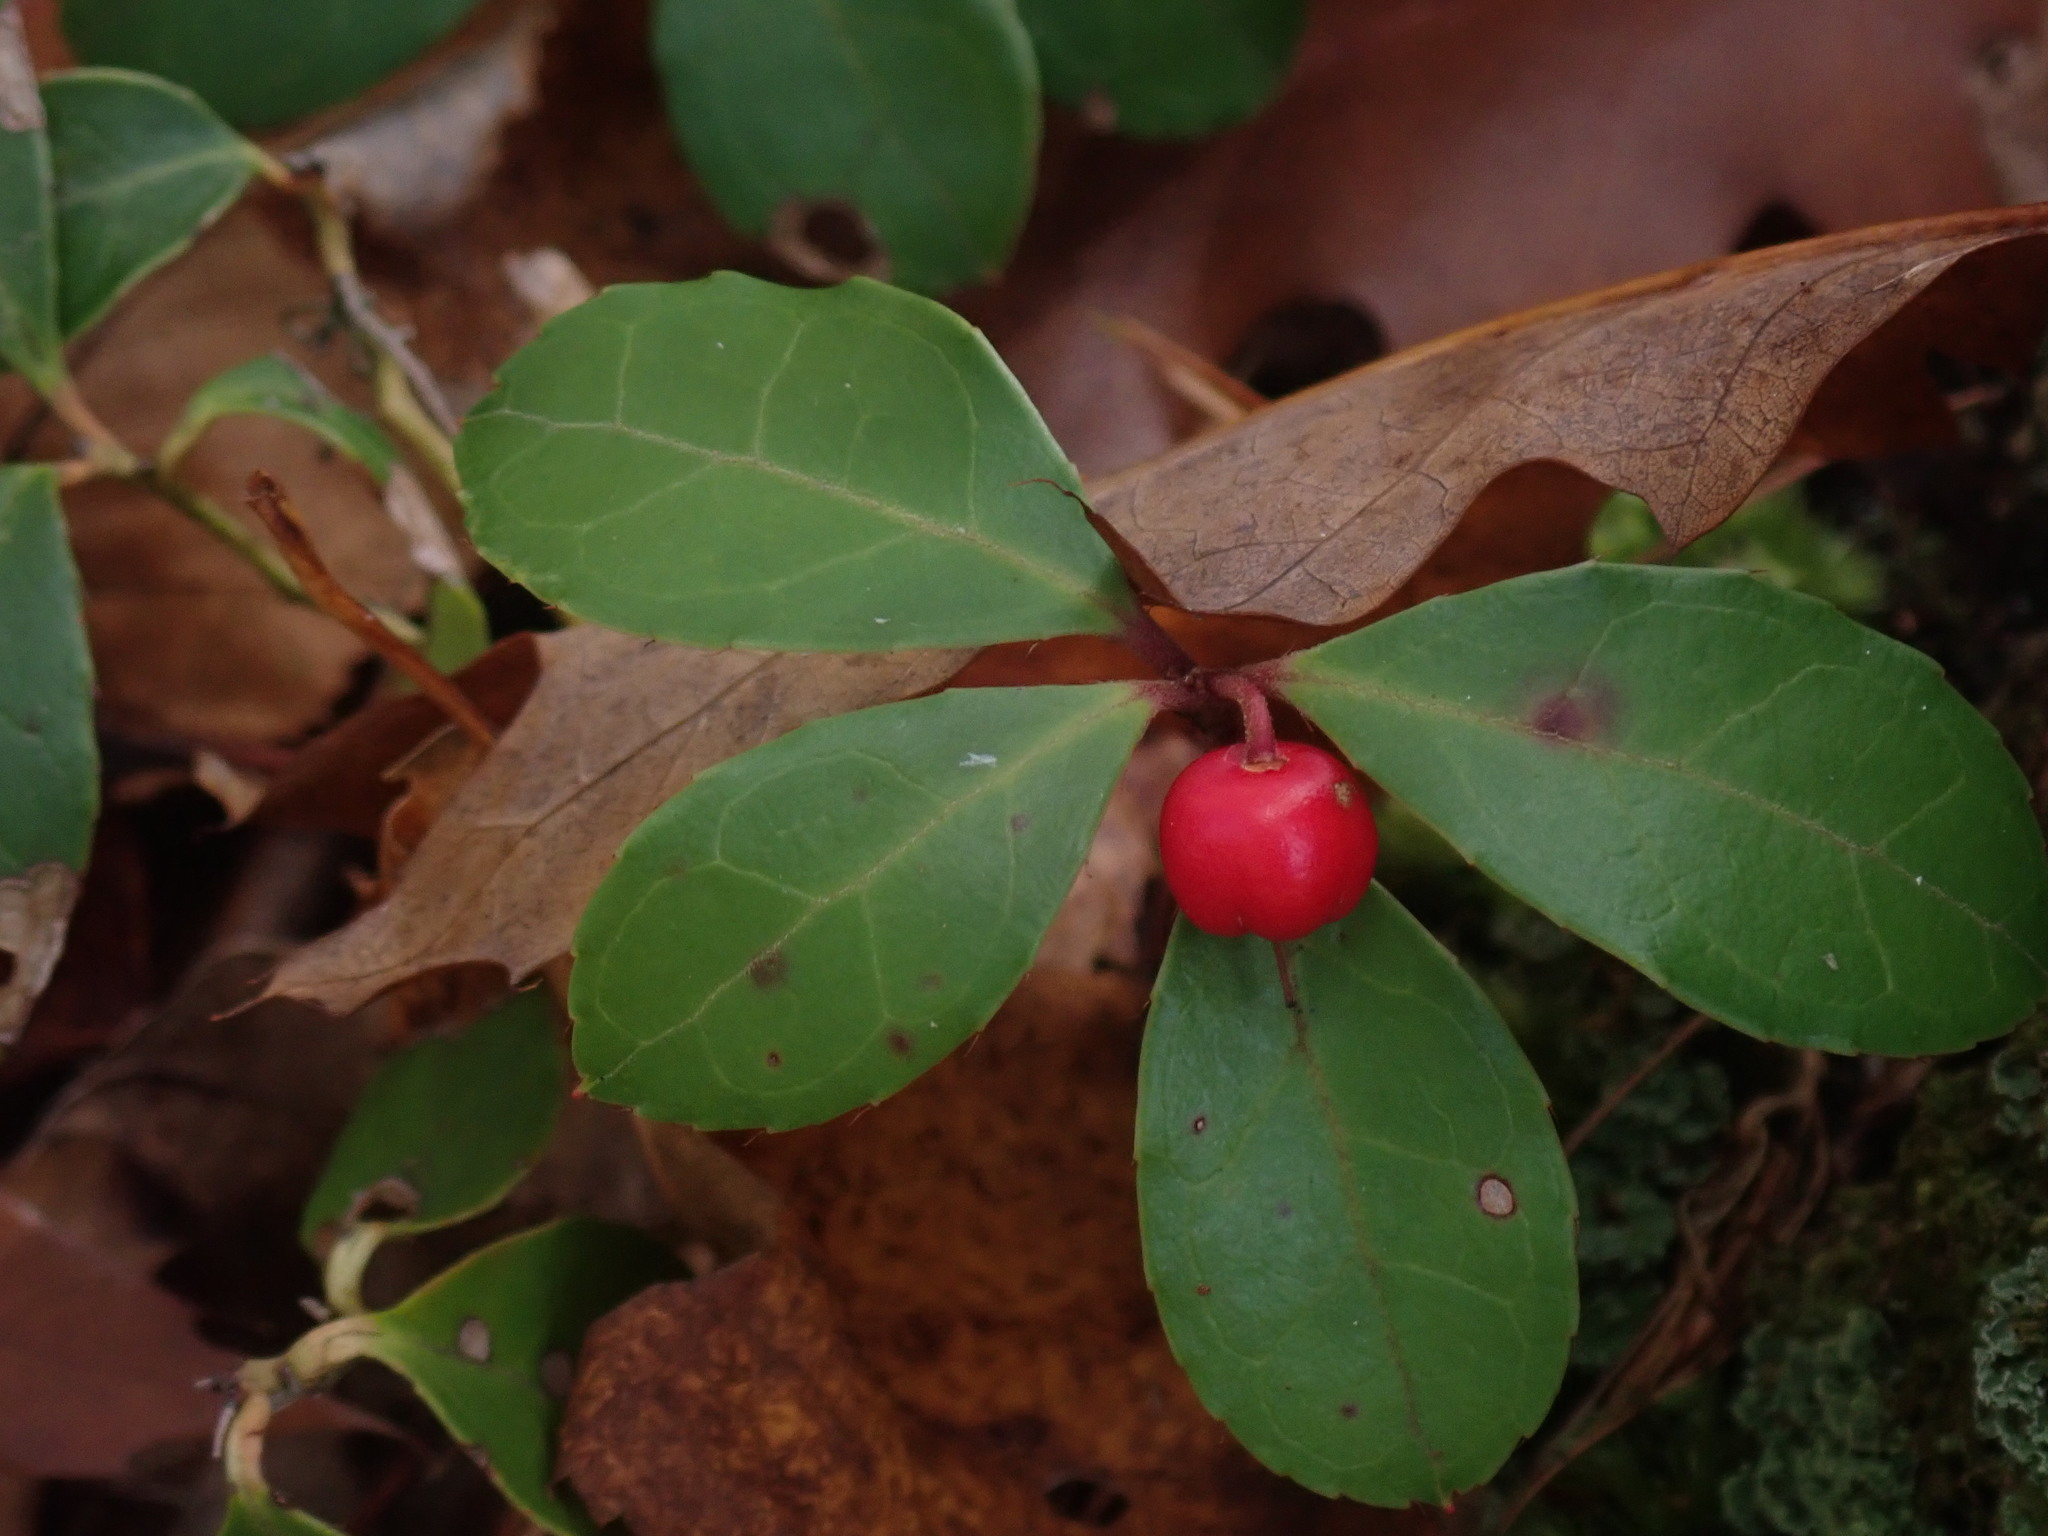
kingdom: Plantae
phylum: Tracheophyta
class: Magnoliopsida
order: Ericales
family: Ericaceae
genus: Gaultheria
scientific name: Gaultheria procumbens
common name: Checkerberry
